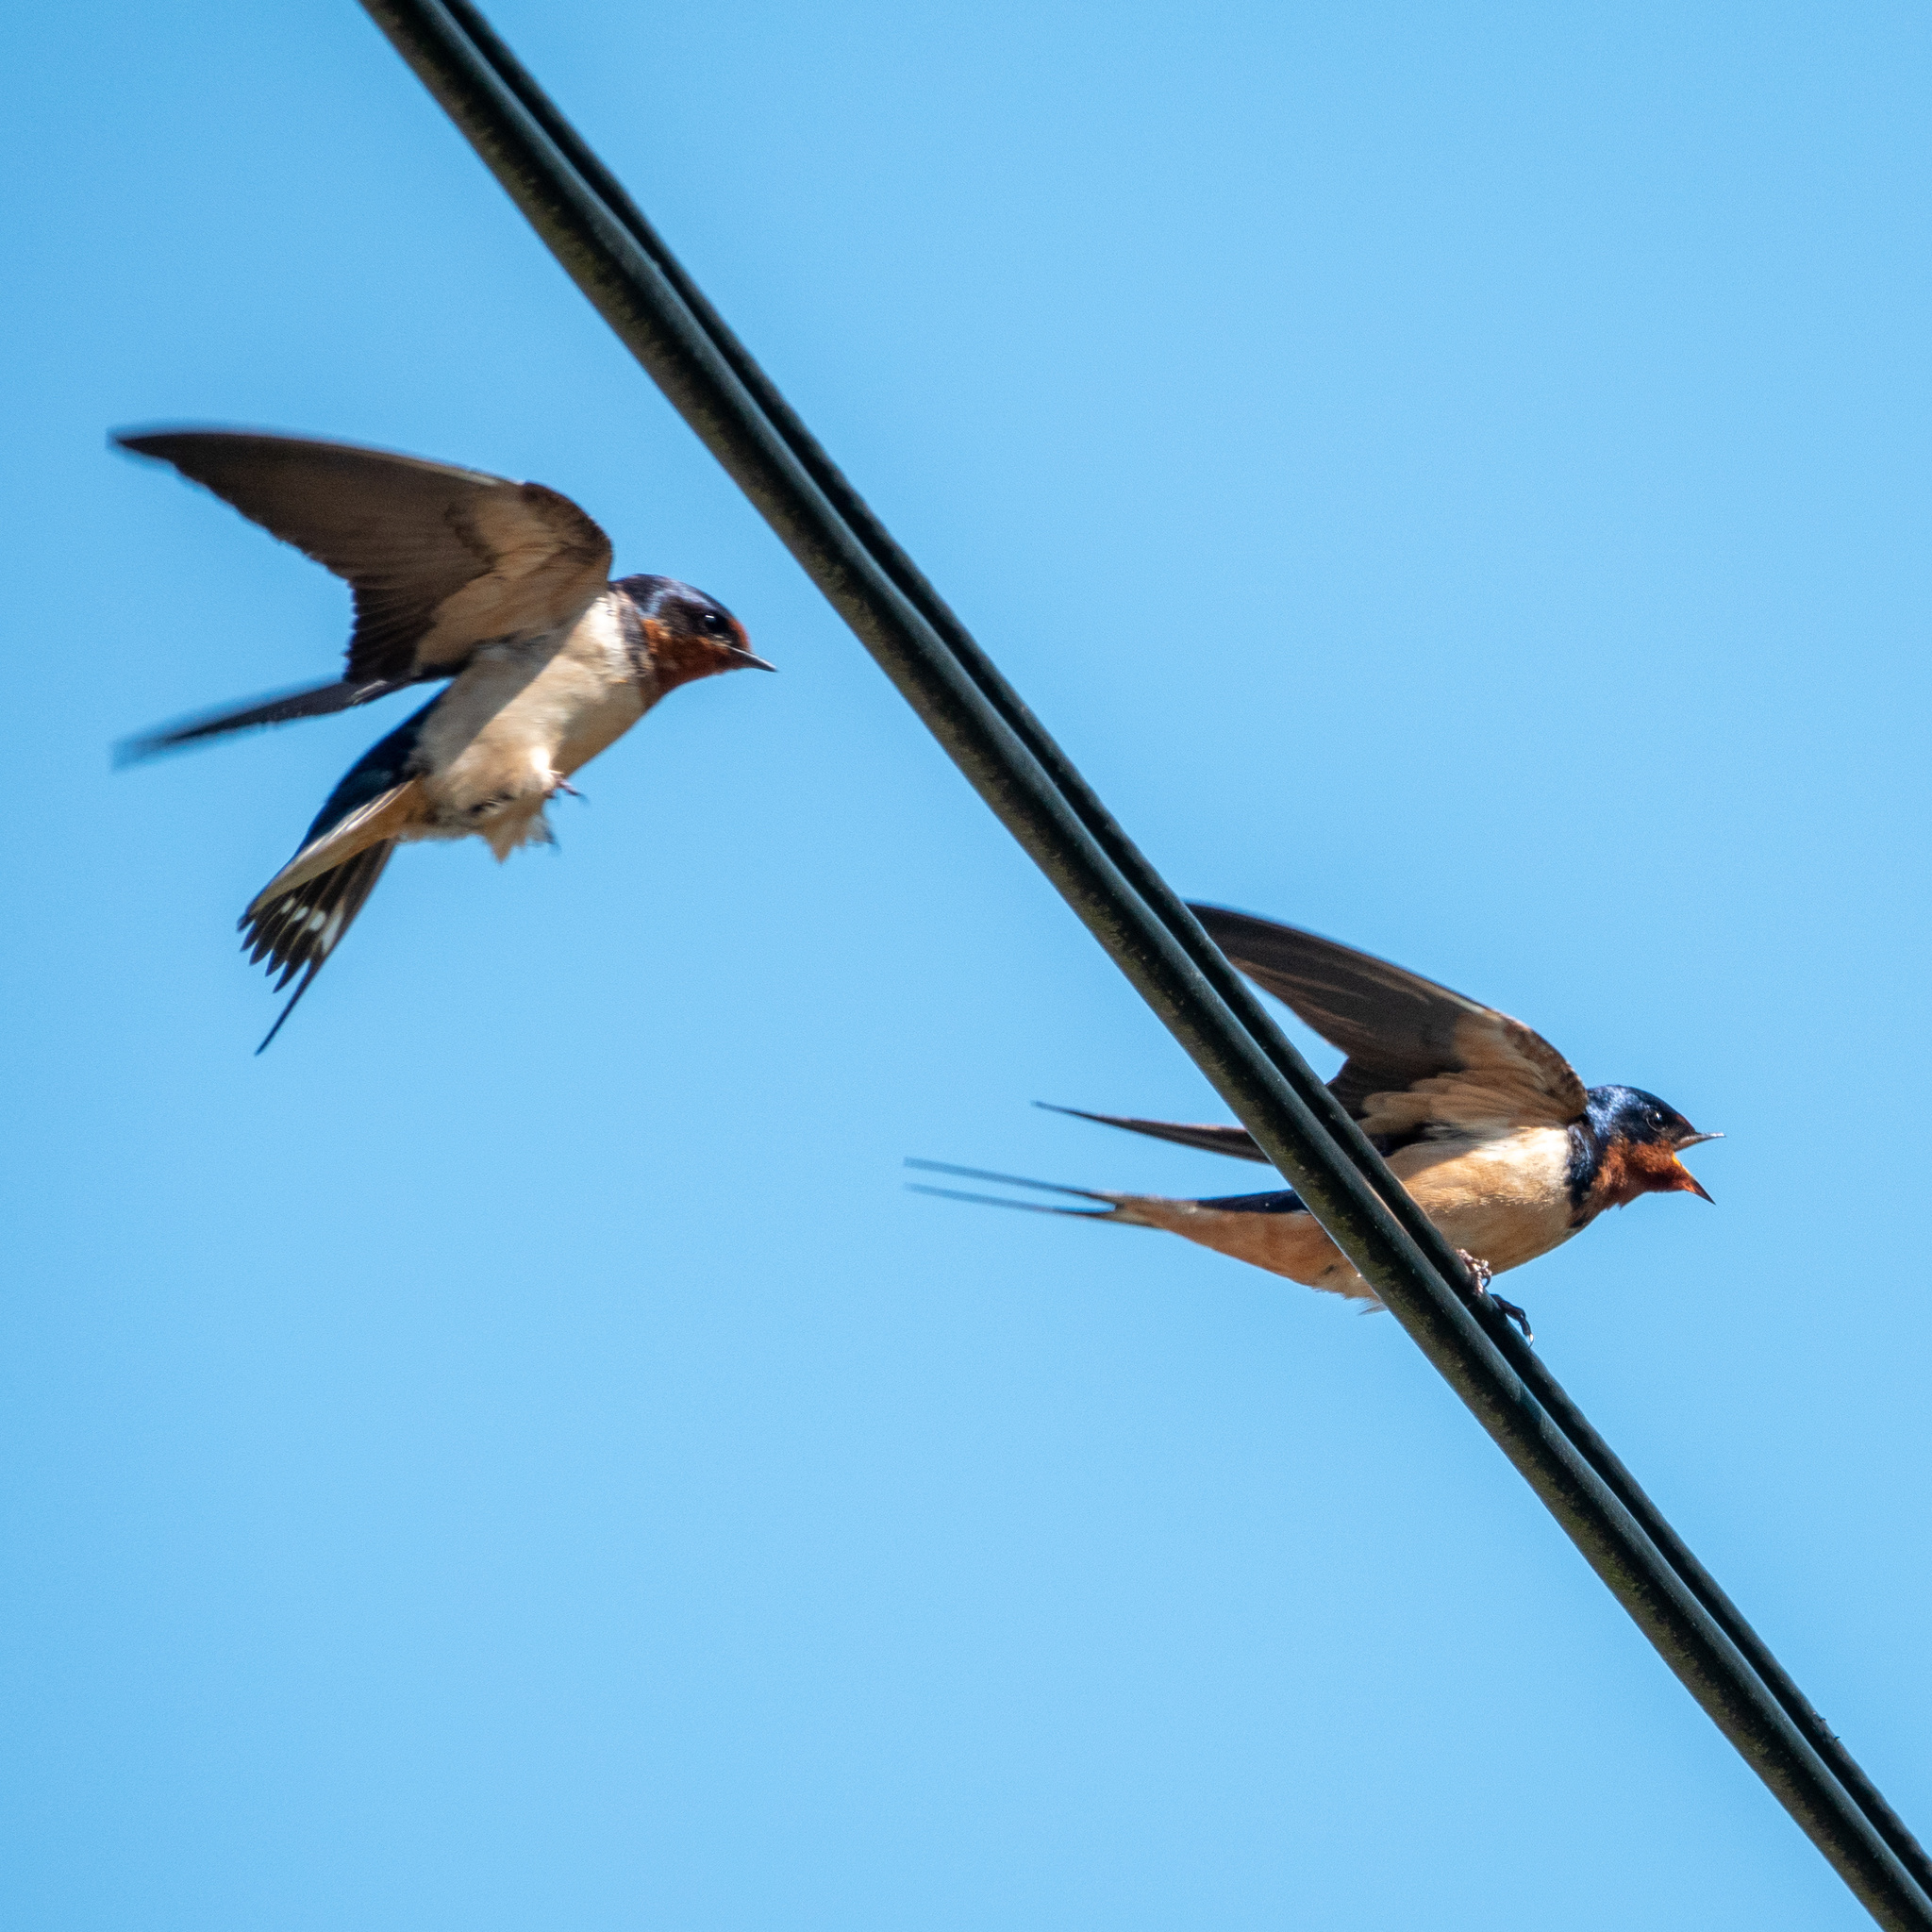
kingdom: Animalia
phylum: Chordata
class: Aves
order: Passeriformes
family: Hirundinidae
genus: Hirundo
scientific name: Hirundo rustica
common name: Barn swallow
